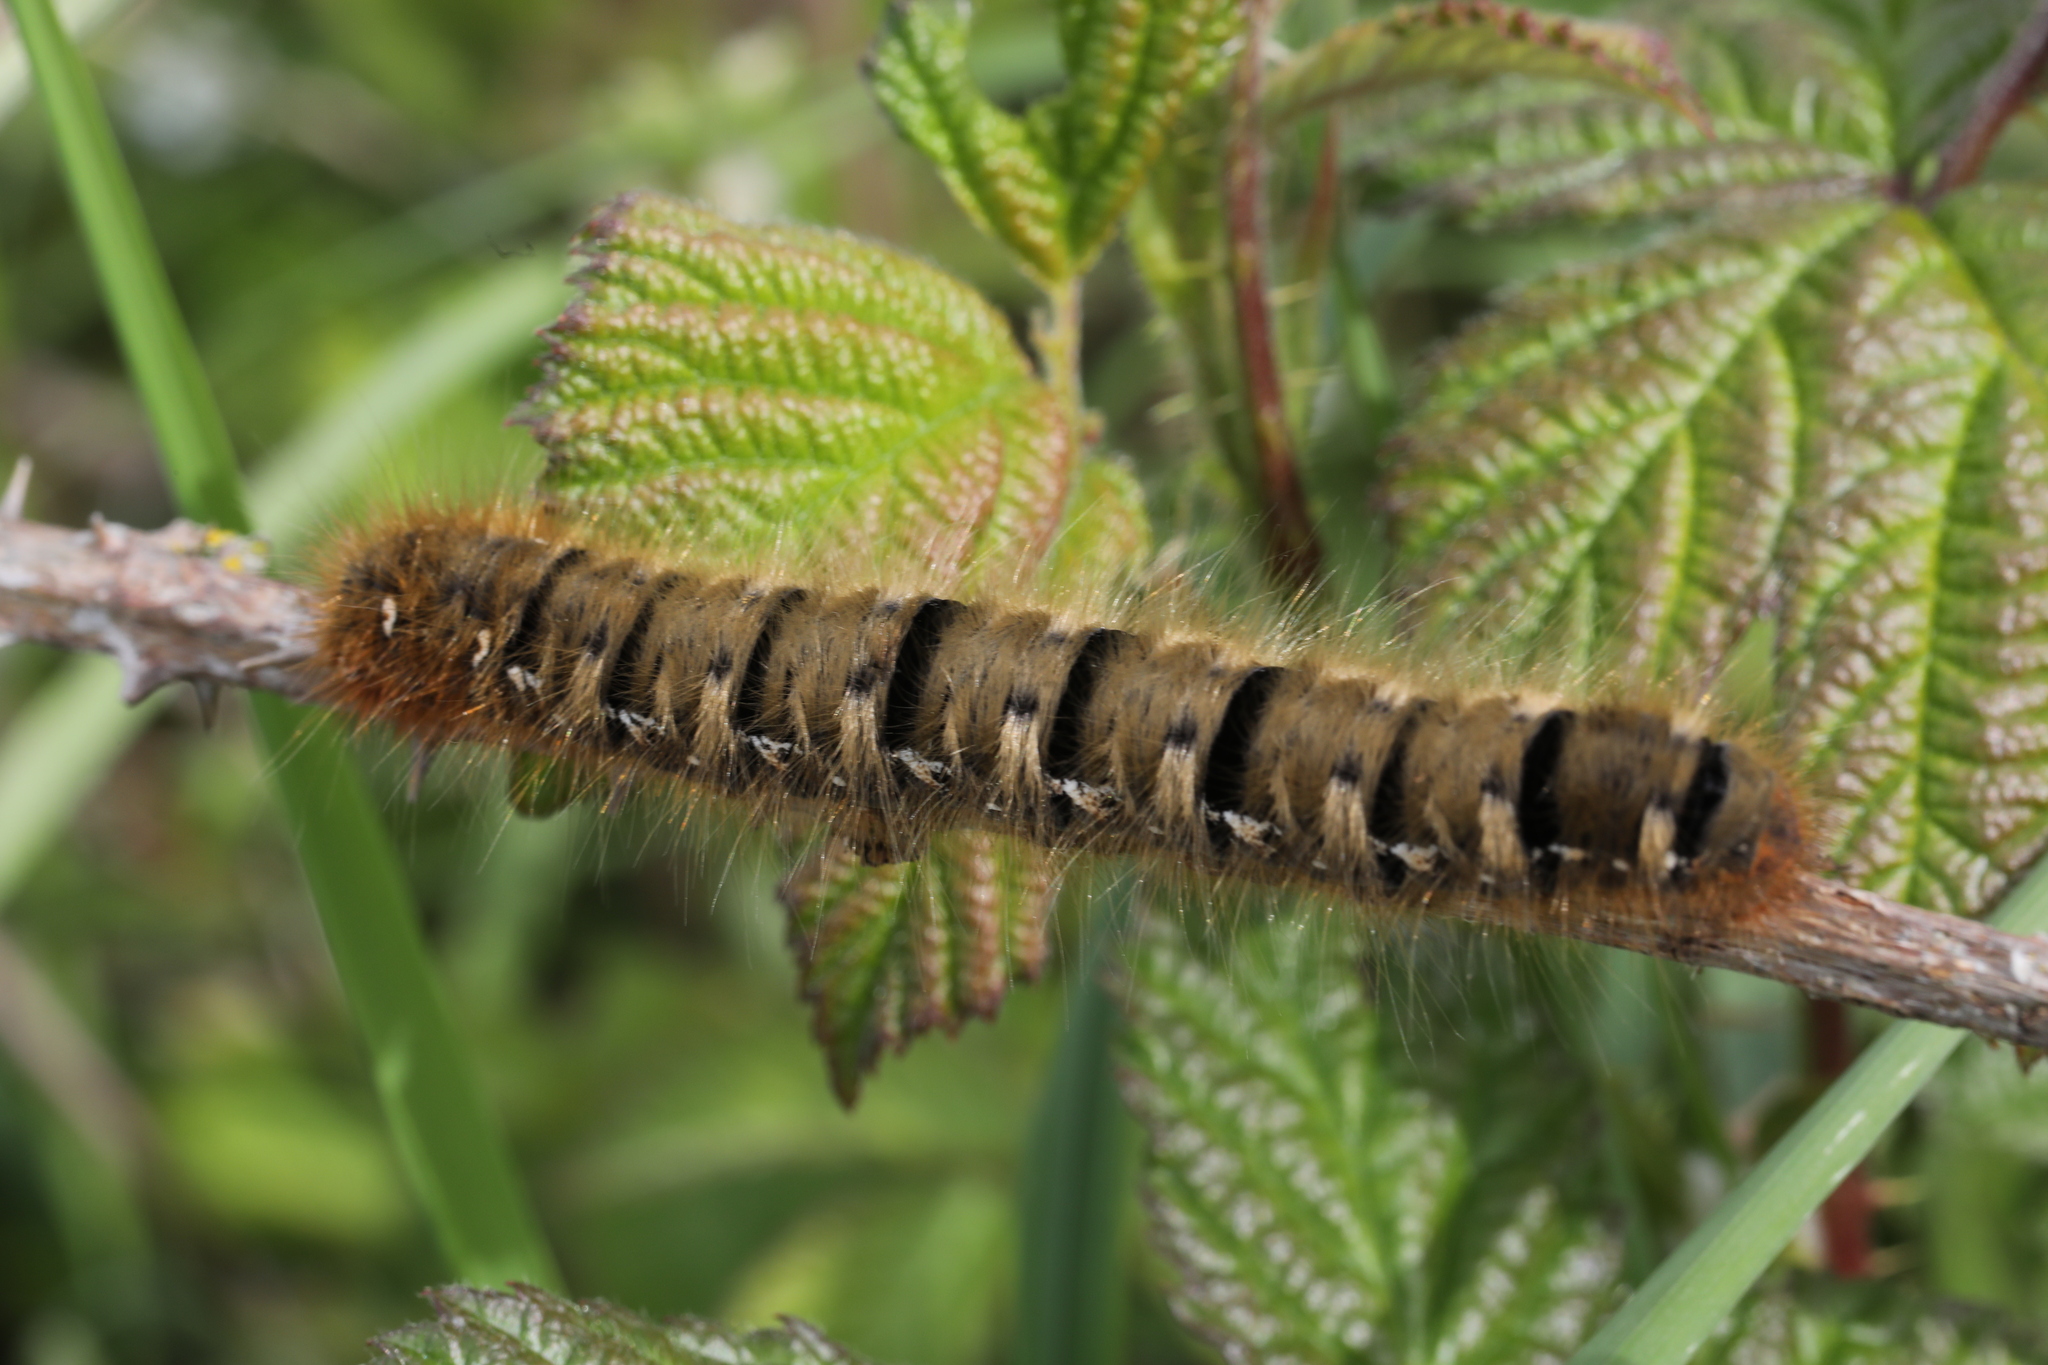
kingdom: Animalia
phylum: Arthropoda
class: Insecta
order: Lepidoptera
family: Lasiocampidae
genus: Lasiocampa
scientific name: Lasiocampa quercus
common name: Oak eggar
